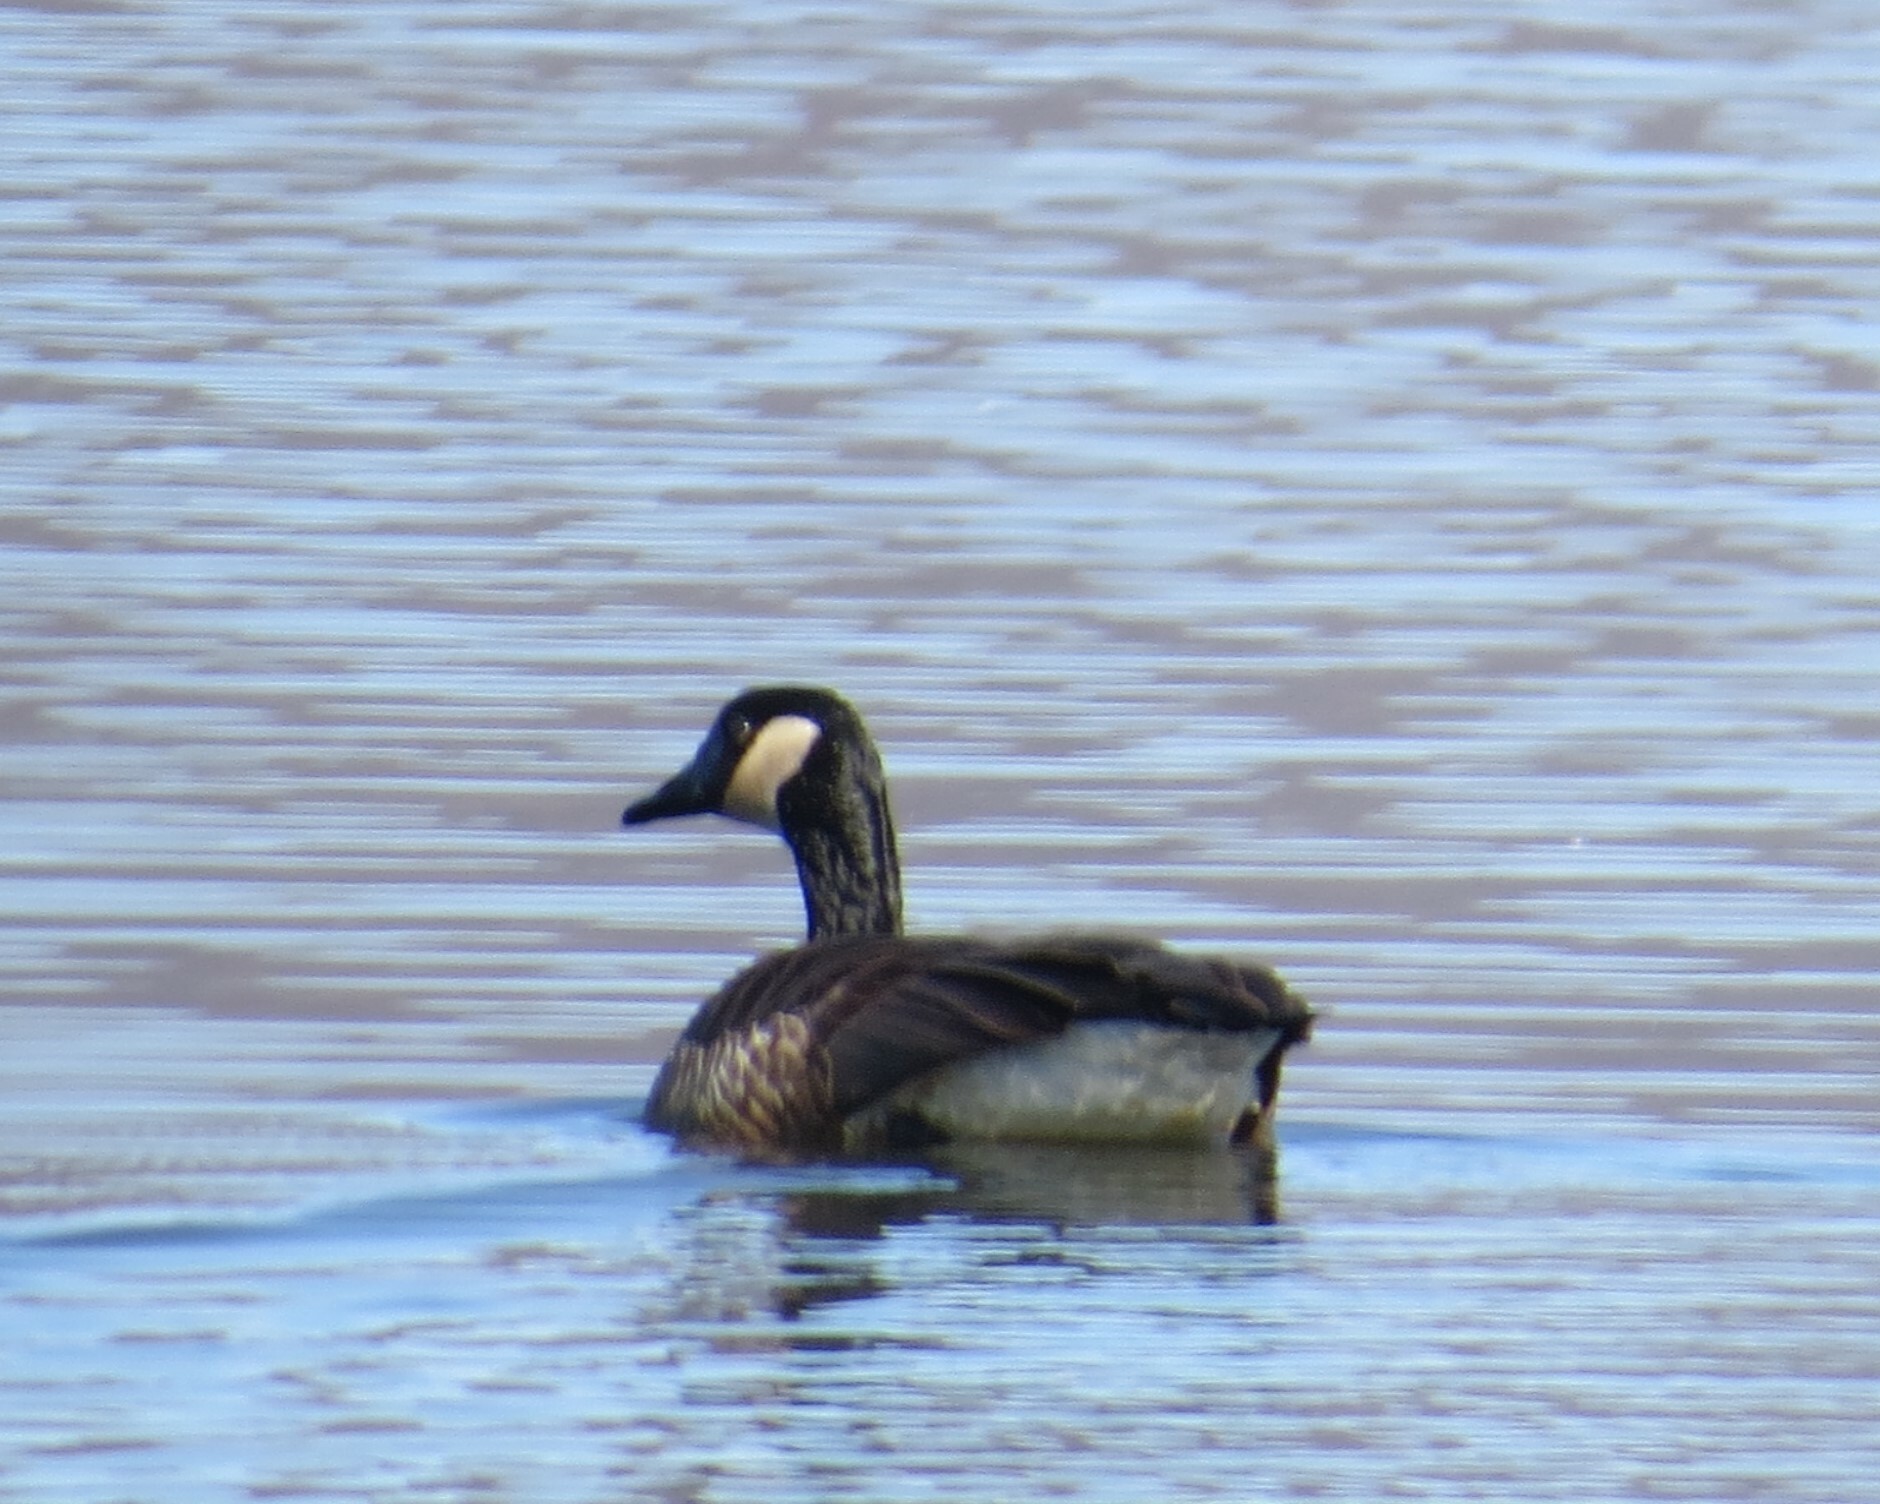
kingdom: Animalia
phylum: Chordata
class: Aves
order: Anseriformes
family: Anatidae
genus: Branta
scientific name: Branta canadensis
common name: Canada goose
